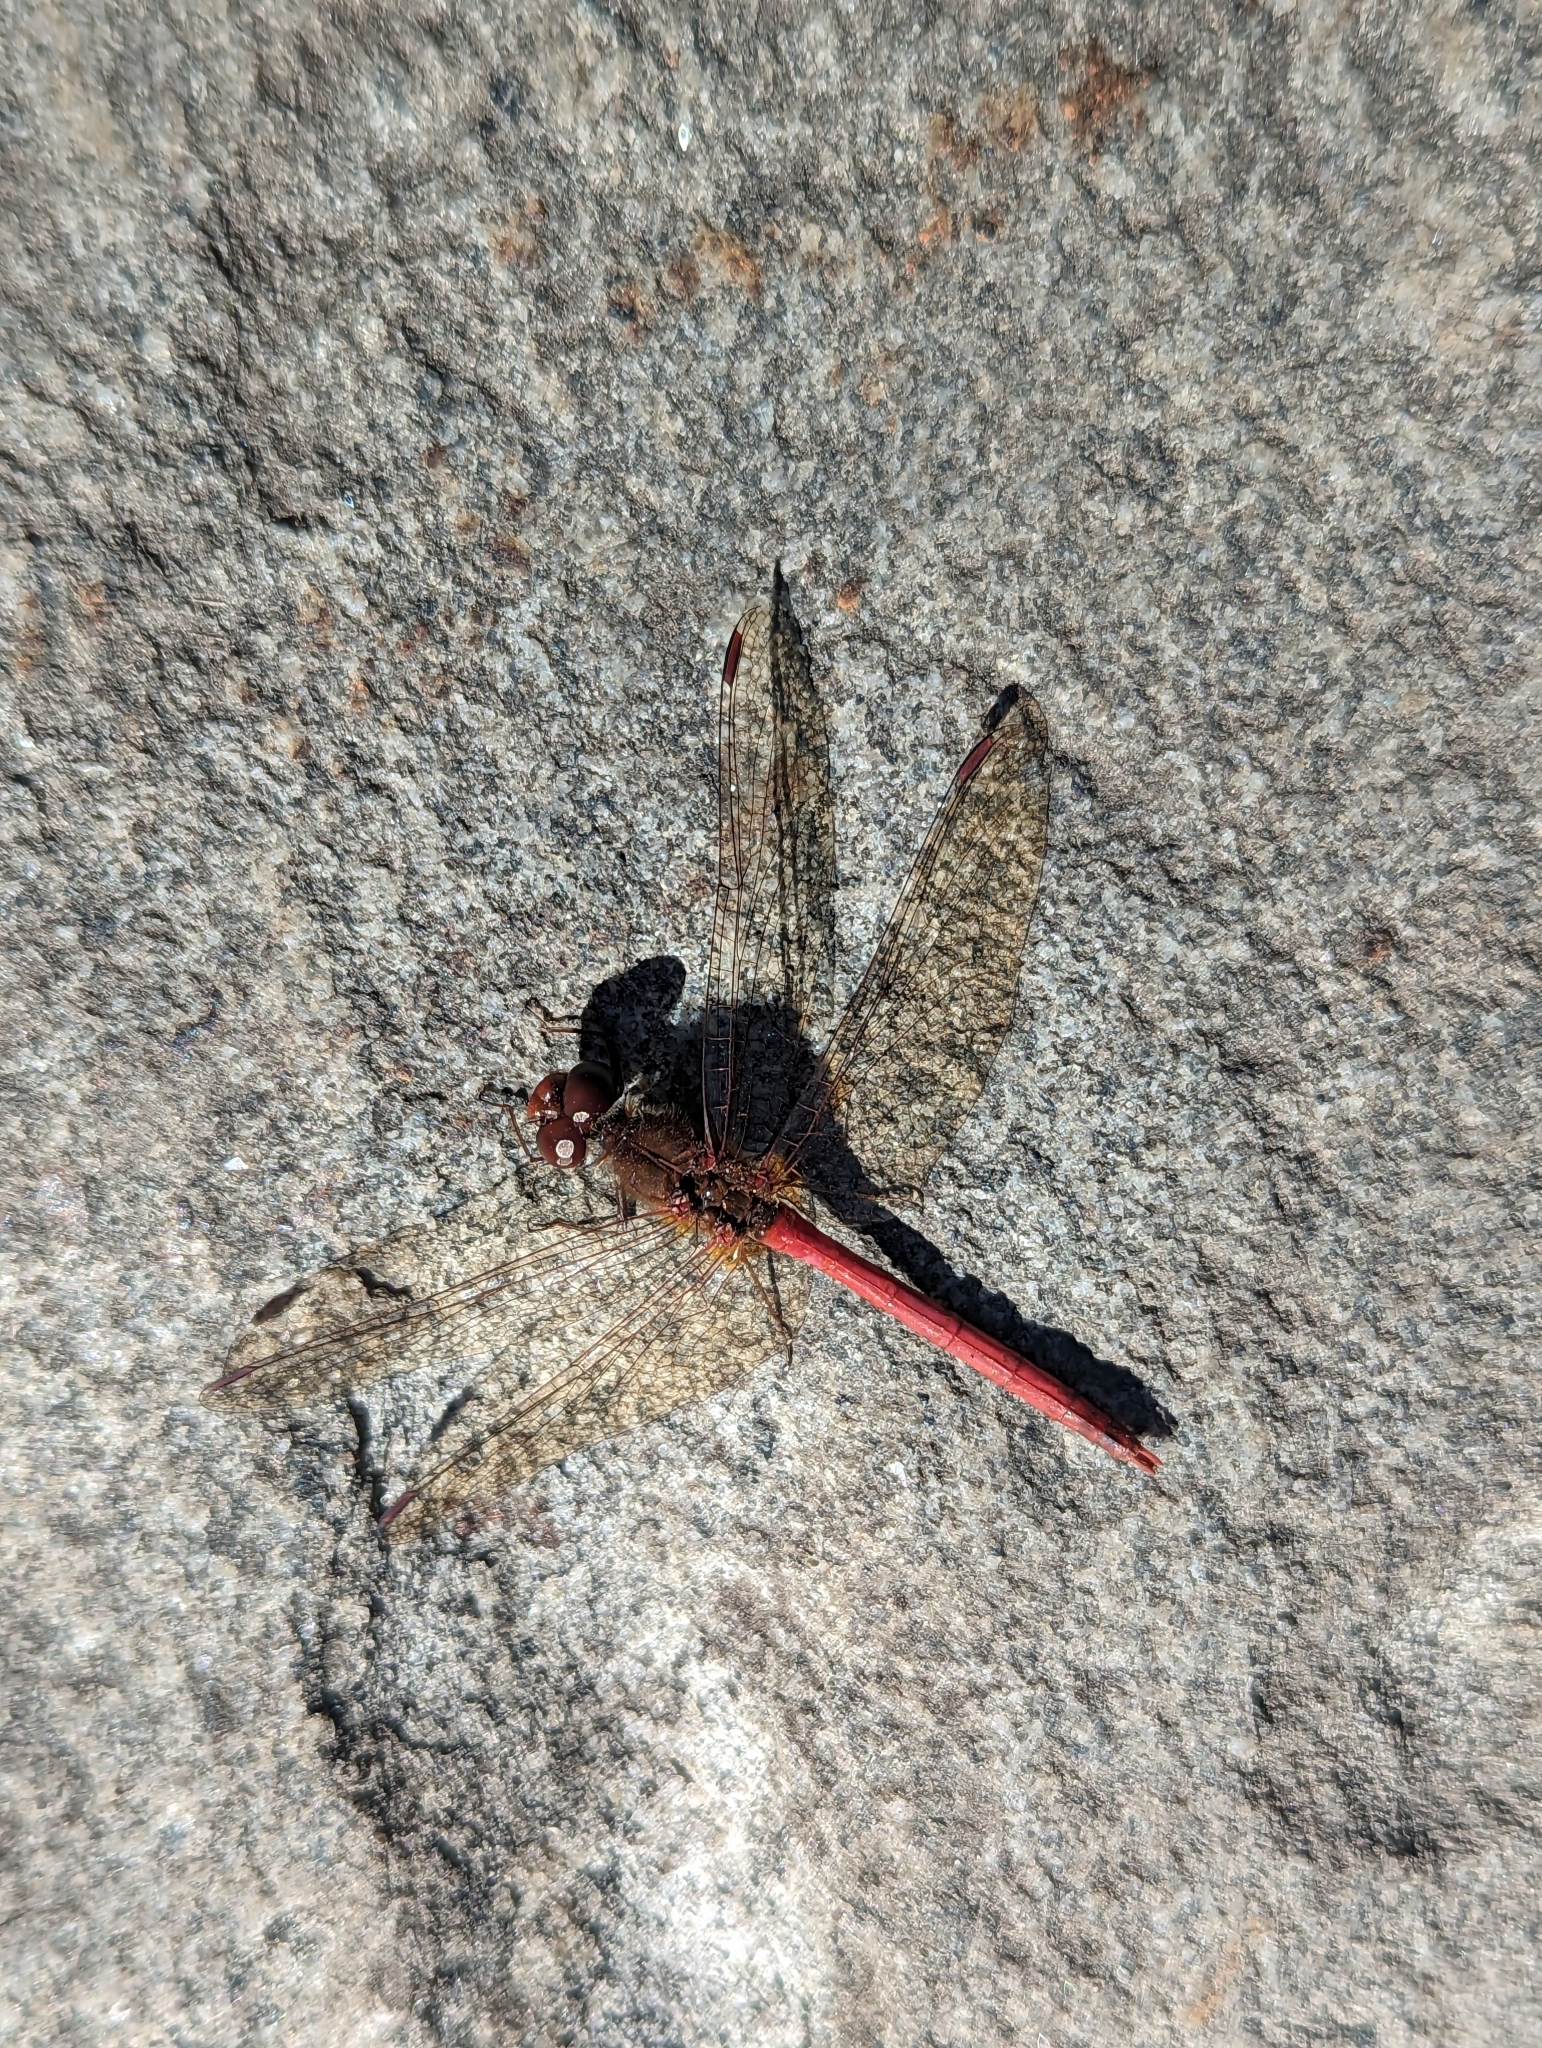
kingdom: Animalia
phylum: Arthropoda
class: Insecta
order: Odonata
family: Libellulidae
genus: Sympetrum
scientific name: Sympetrum vicinum
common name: Autumn meadowhawk
